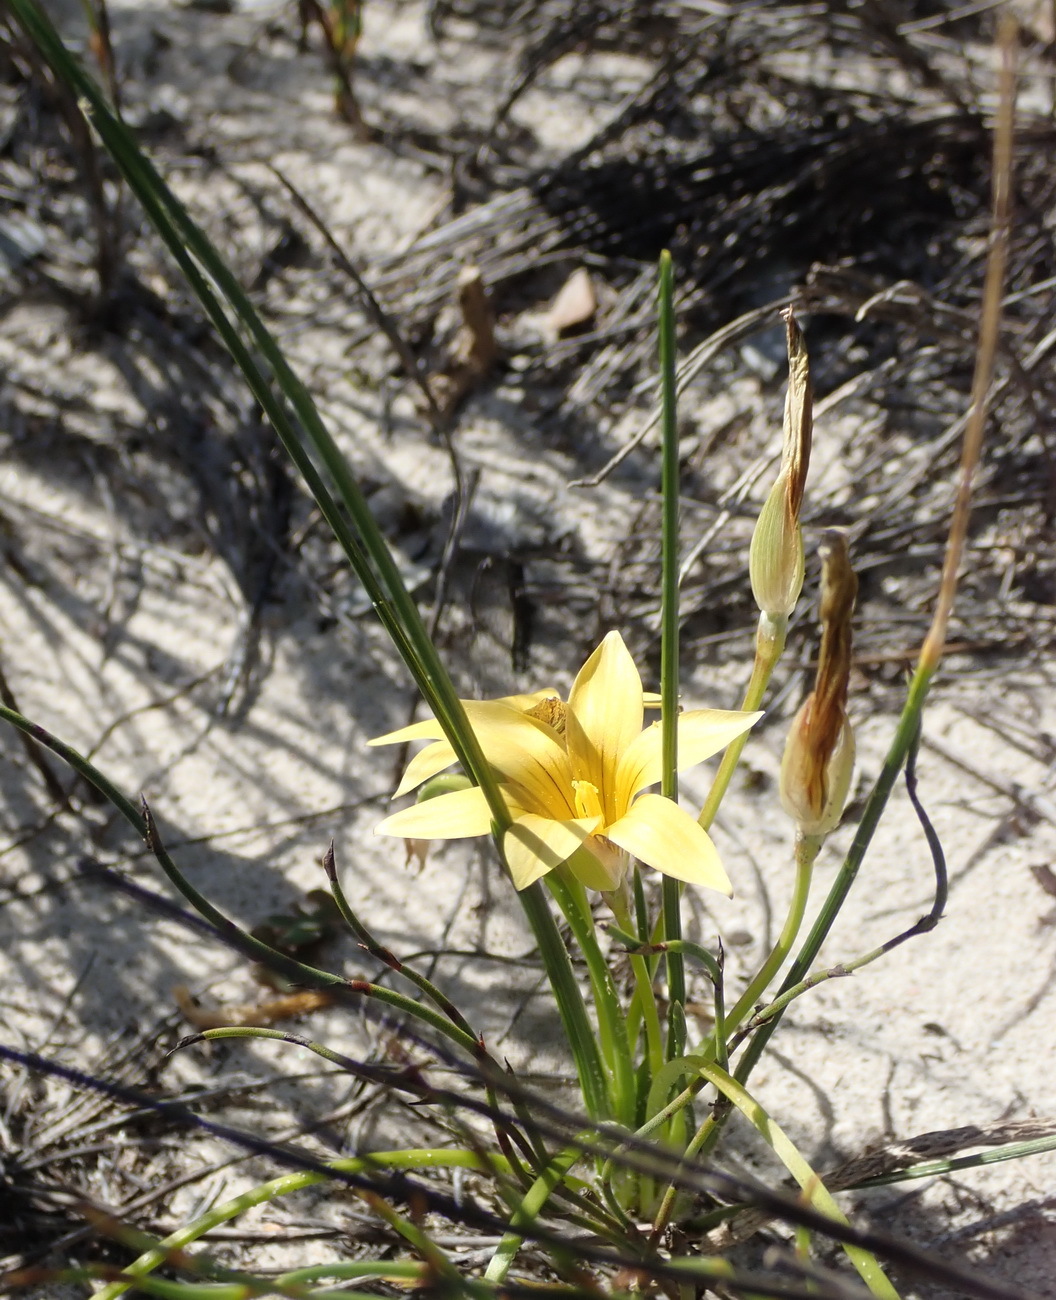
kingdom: Plantae
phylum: Tracheophyta
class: Liliopsida
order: Asparagales
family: Iridaceae
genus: Romulea
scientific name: Romulea flava
